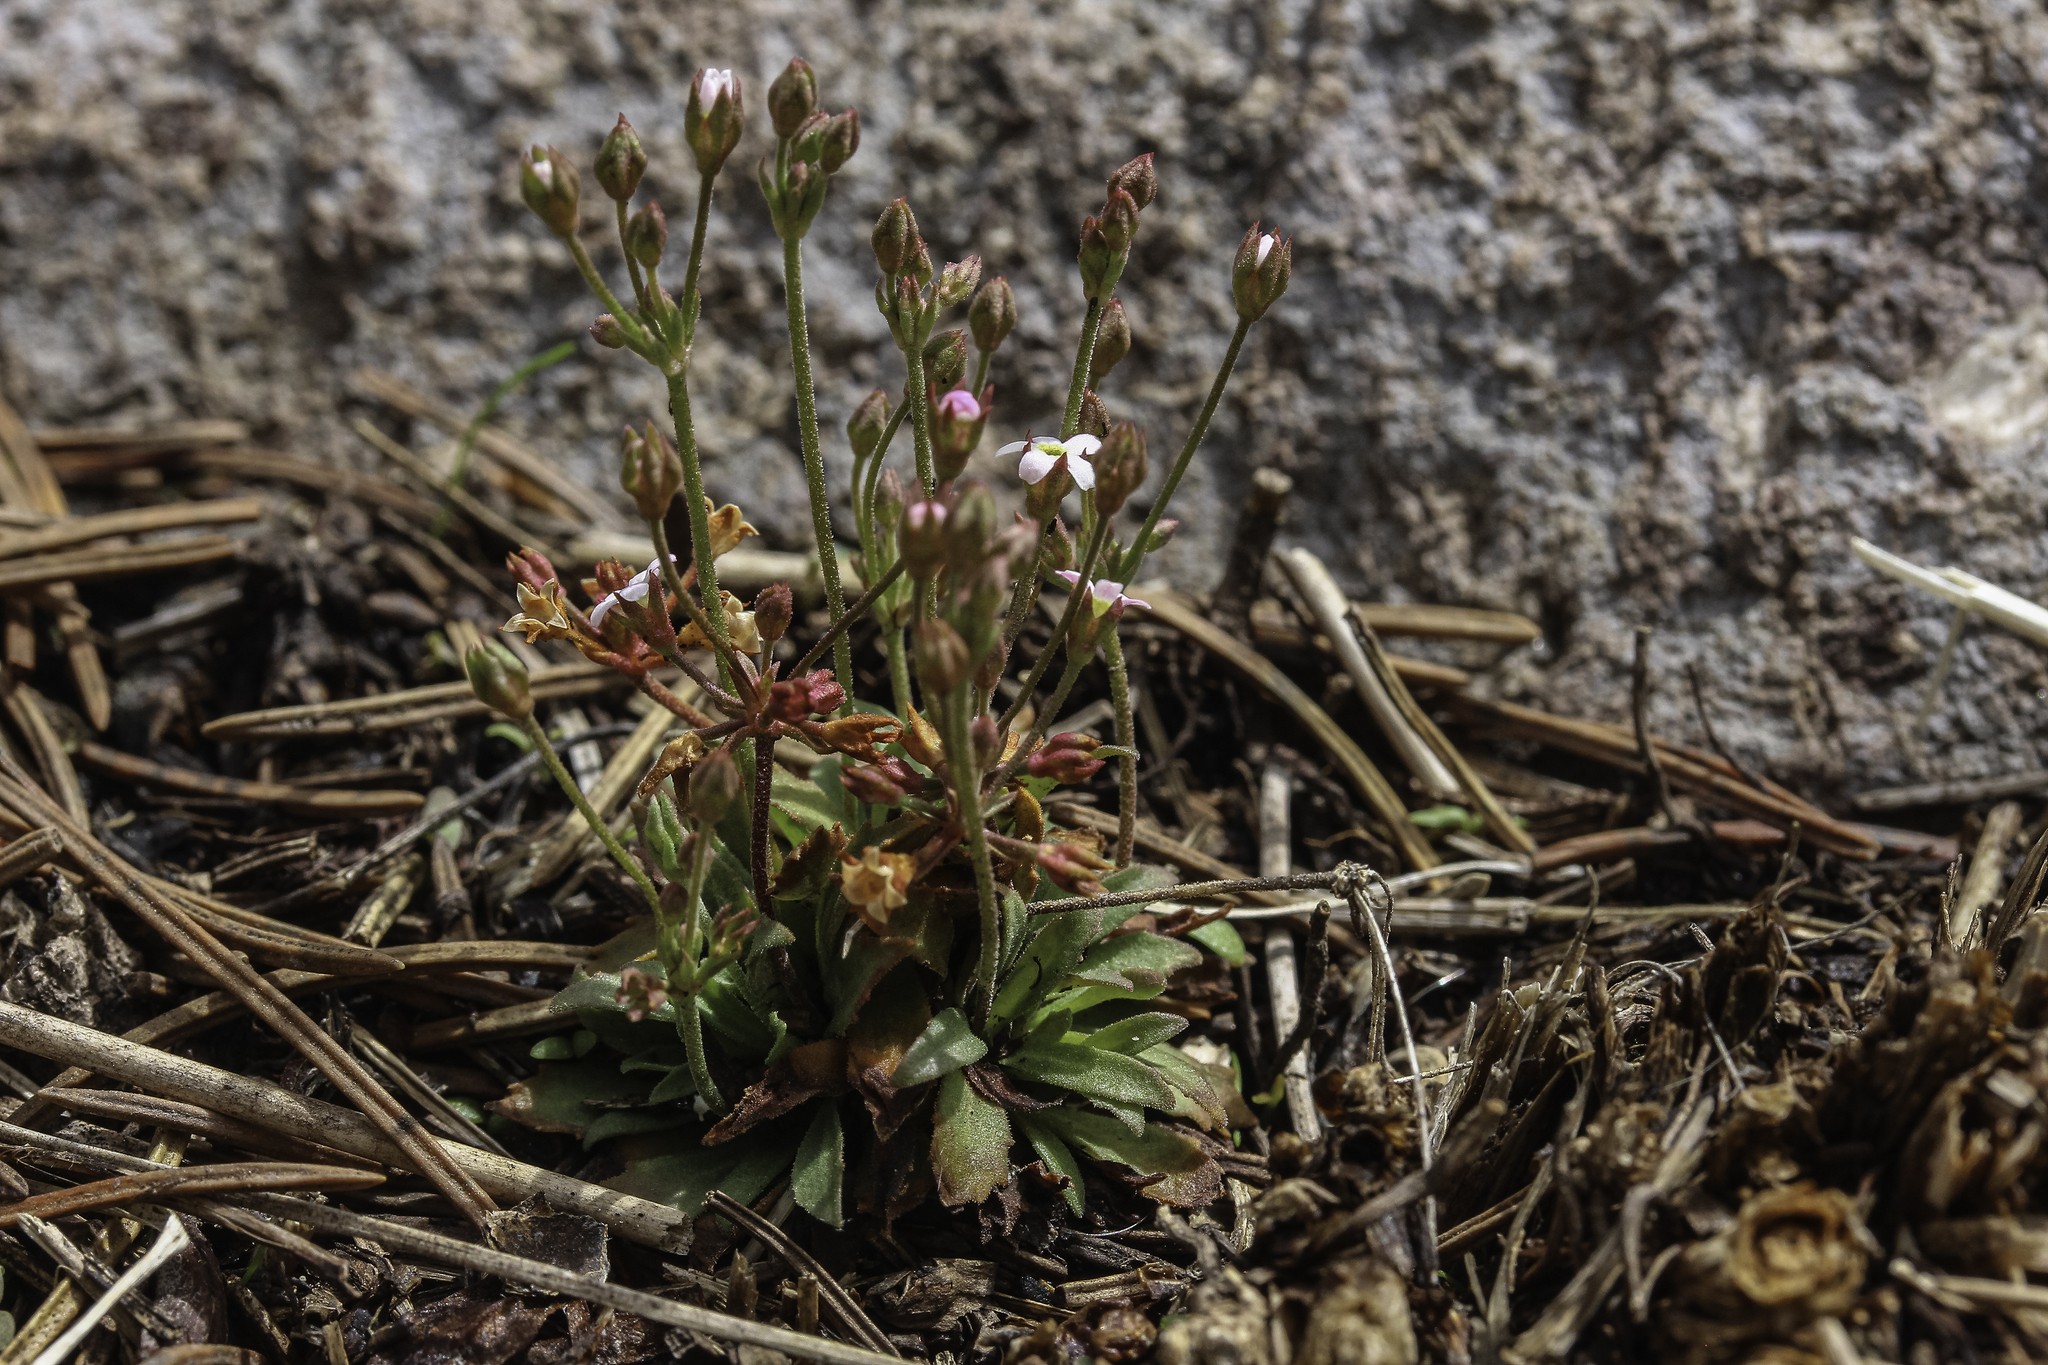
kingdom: Plantae
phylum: Tracheophyta
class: Magnoliopsida
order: Ericales
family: Primulaceae
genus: Androsace
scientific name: Androsace septentrionalis
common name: Hairy northern fairy-candelabra
